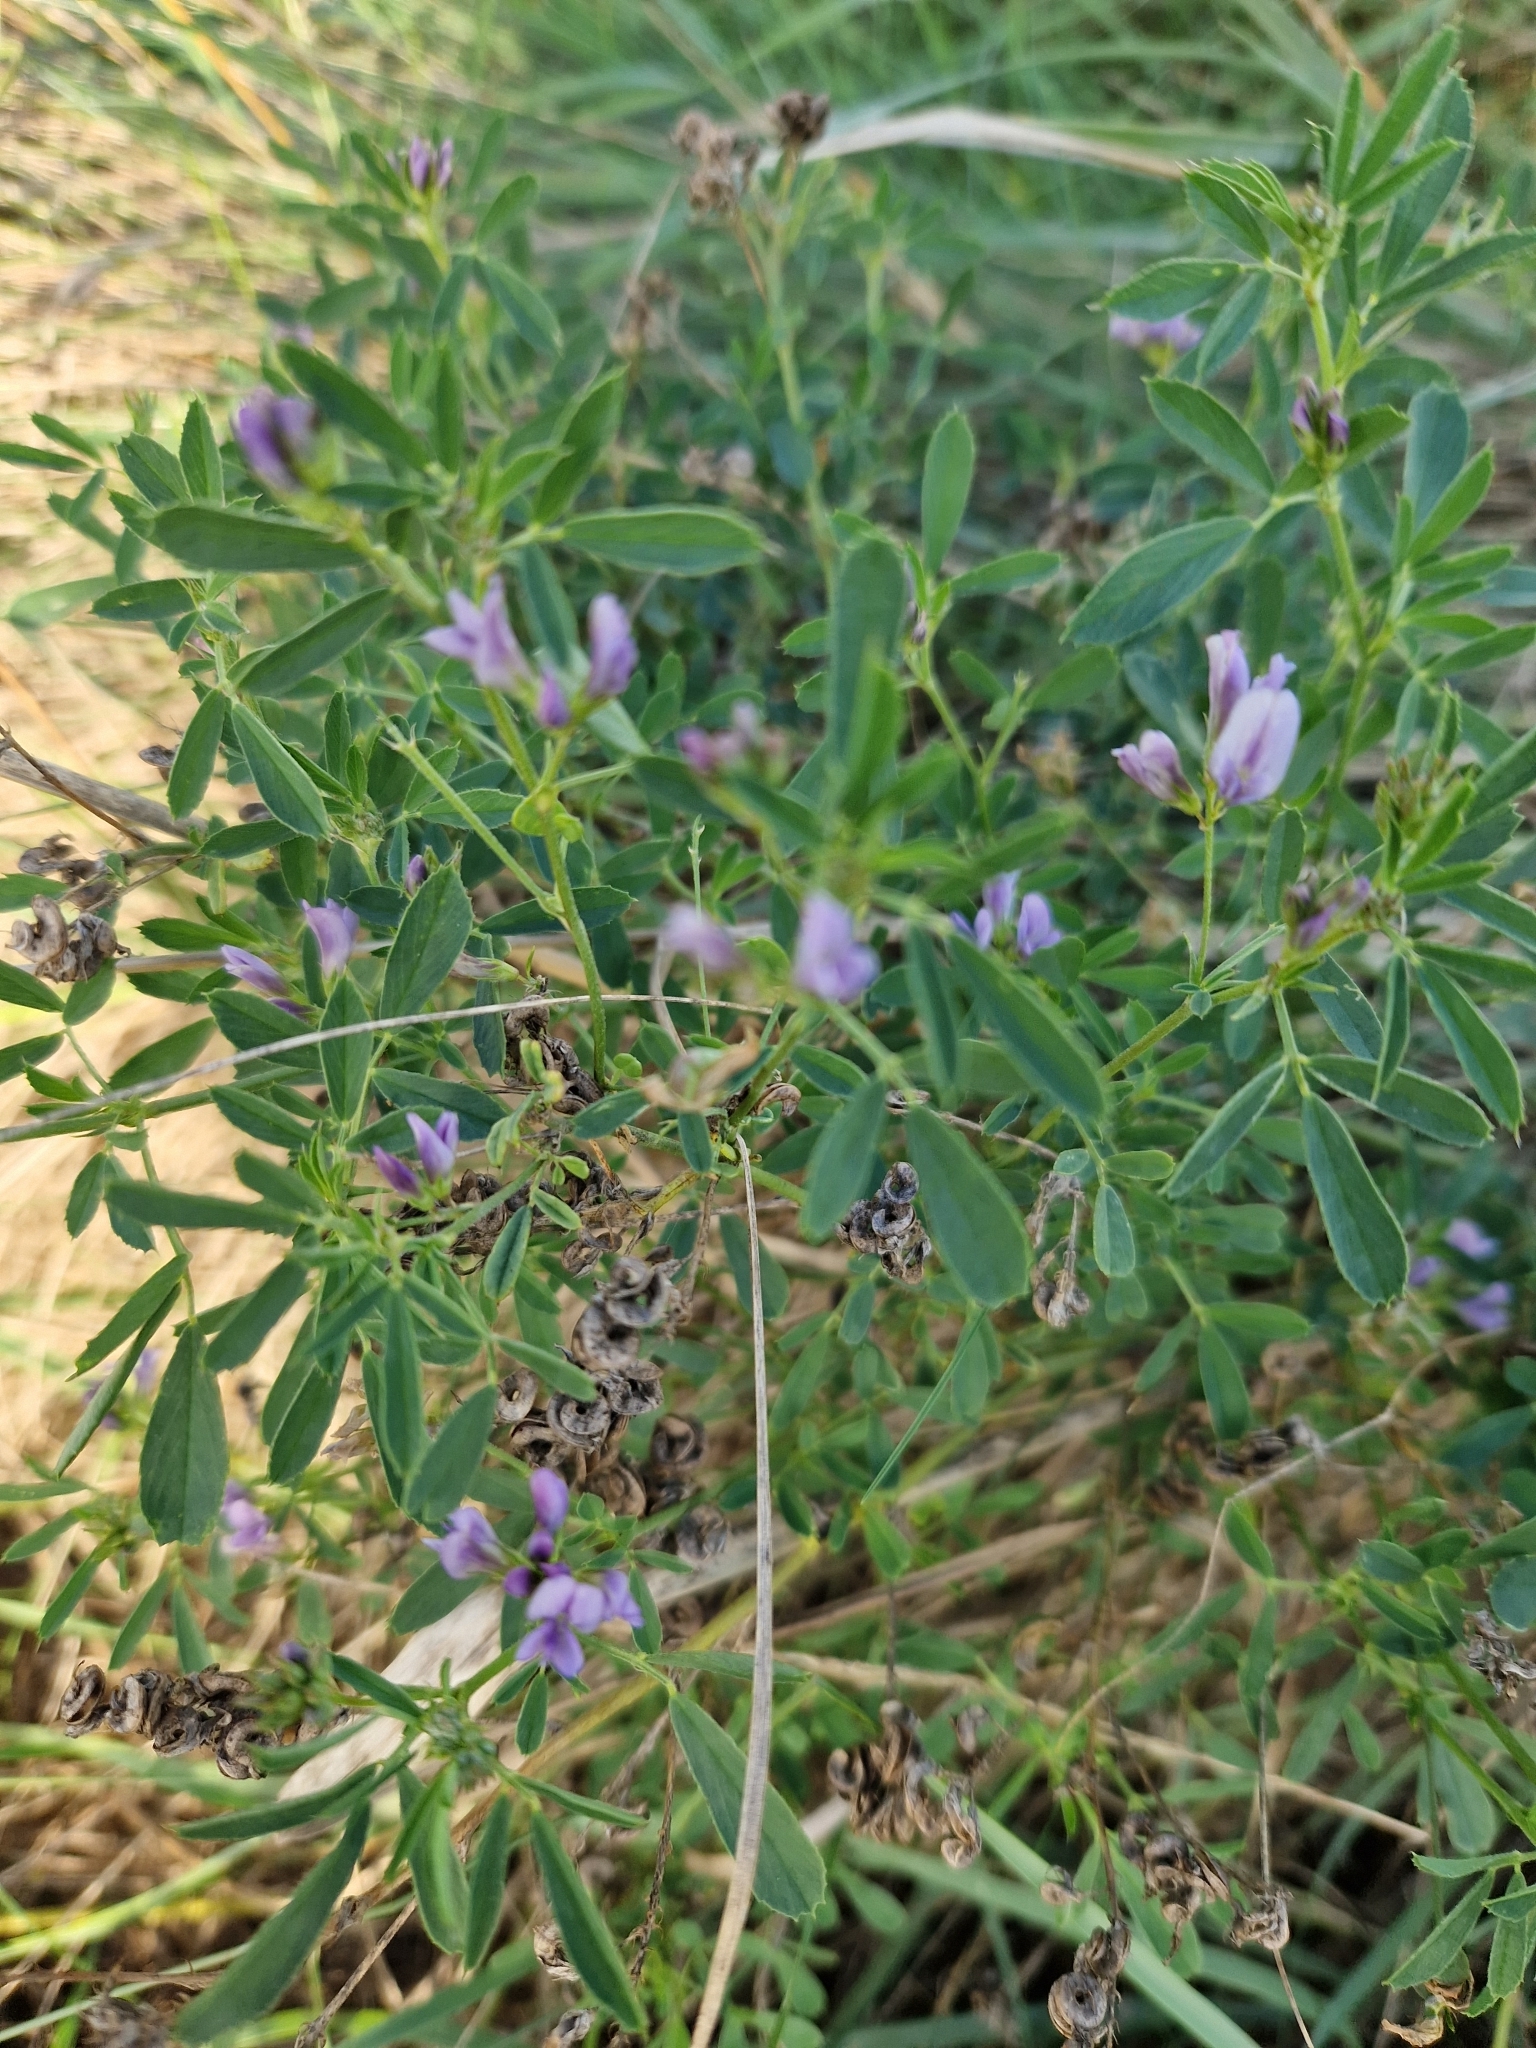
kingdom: Plantae
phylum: Tracheophyta
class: Magnoliopsida
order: Fabales
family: Fabaceae
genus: Medicago
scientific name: Medicago varia
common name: Sand lucerne
